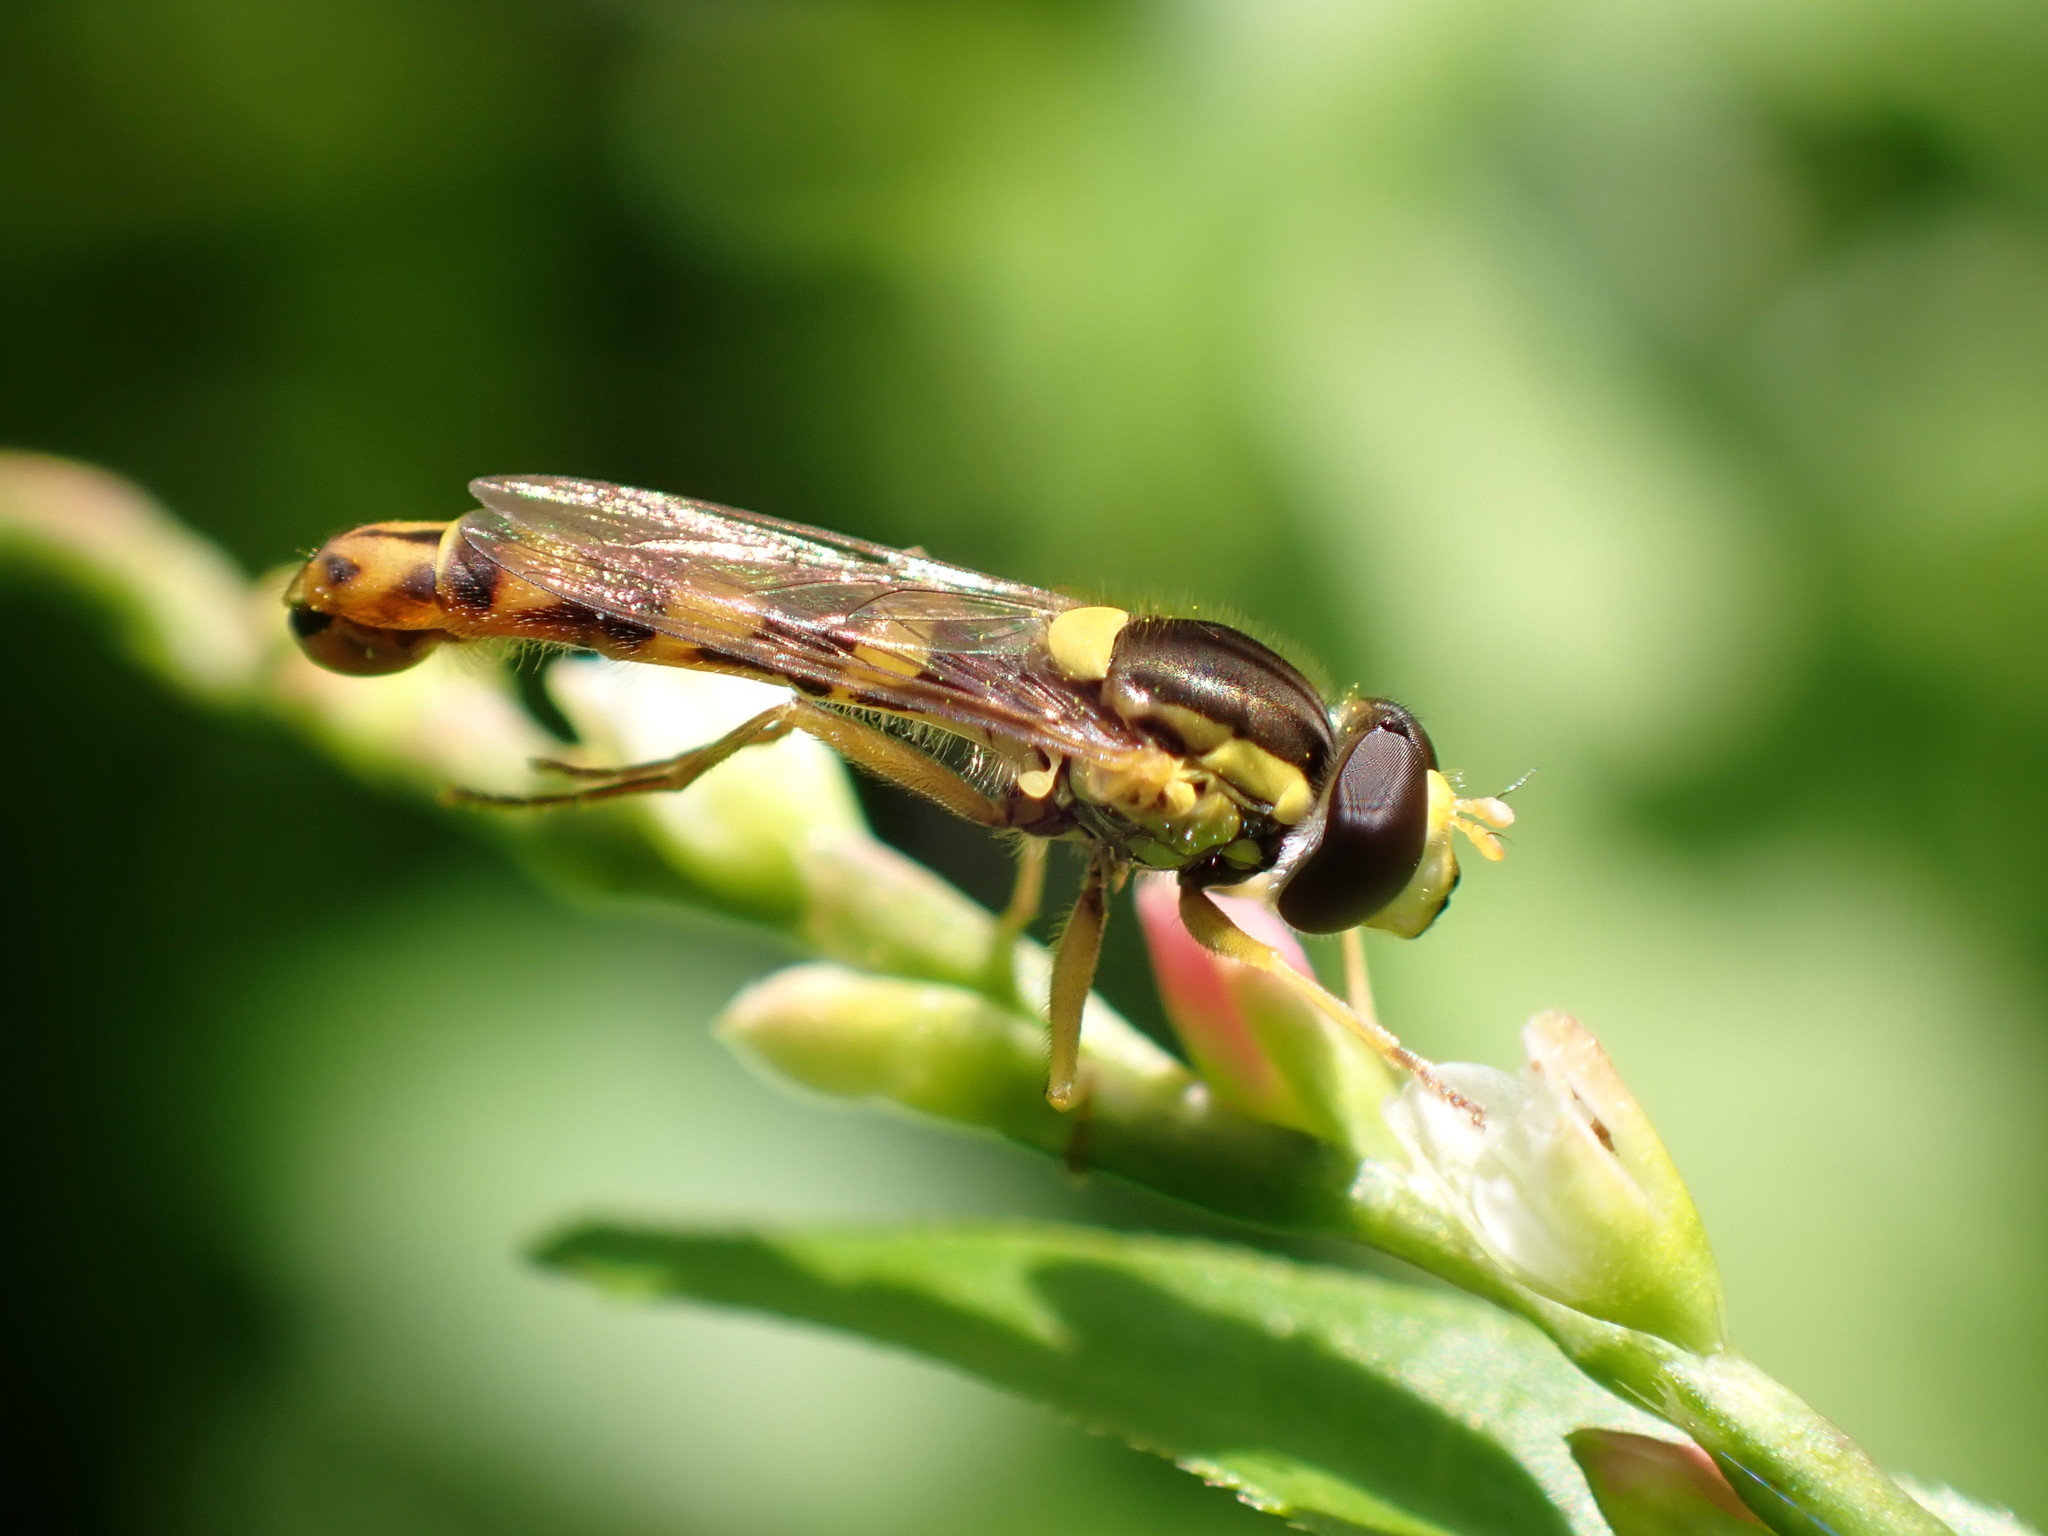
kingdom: Animalia
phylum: Arthropoda
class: Insecta
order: Diptera
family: Syrphidae
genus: Sphaerophoria
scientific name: Sphaerophoria scripta
